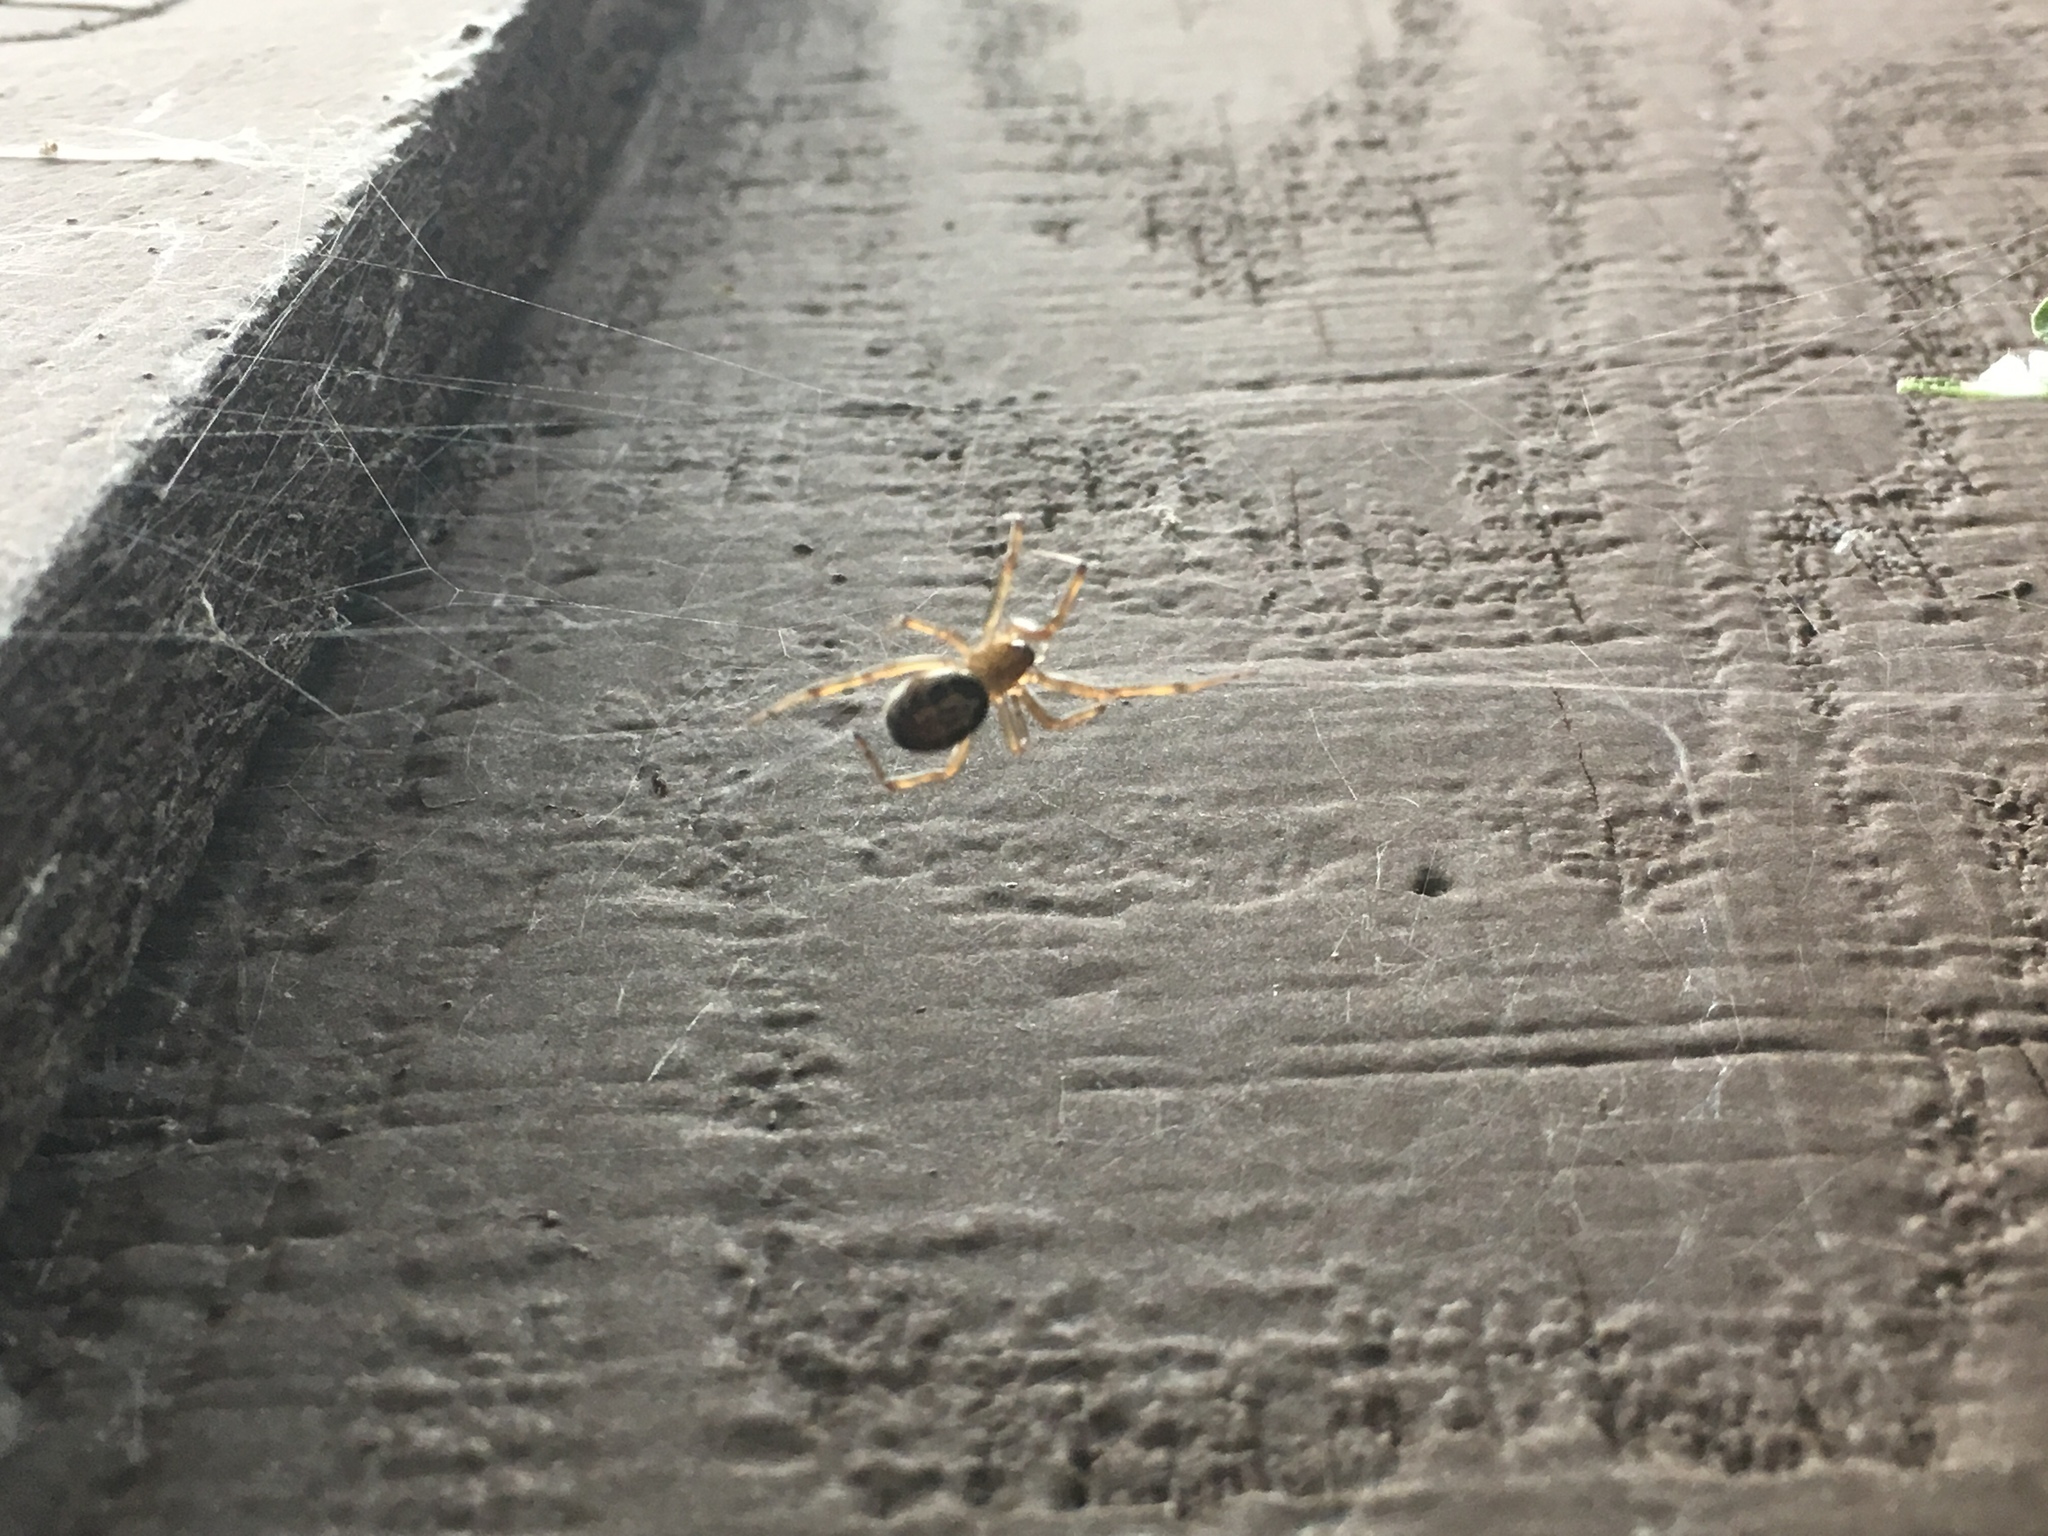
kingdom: Animalia
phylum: Arthropoda
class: Arachnida
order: Araneae
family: Theridiidae
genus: Steatoda
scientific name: Steatoda nobilis
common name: Cobweb weaver
